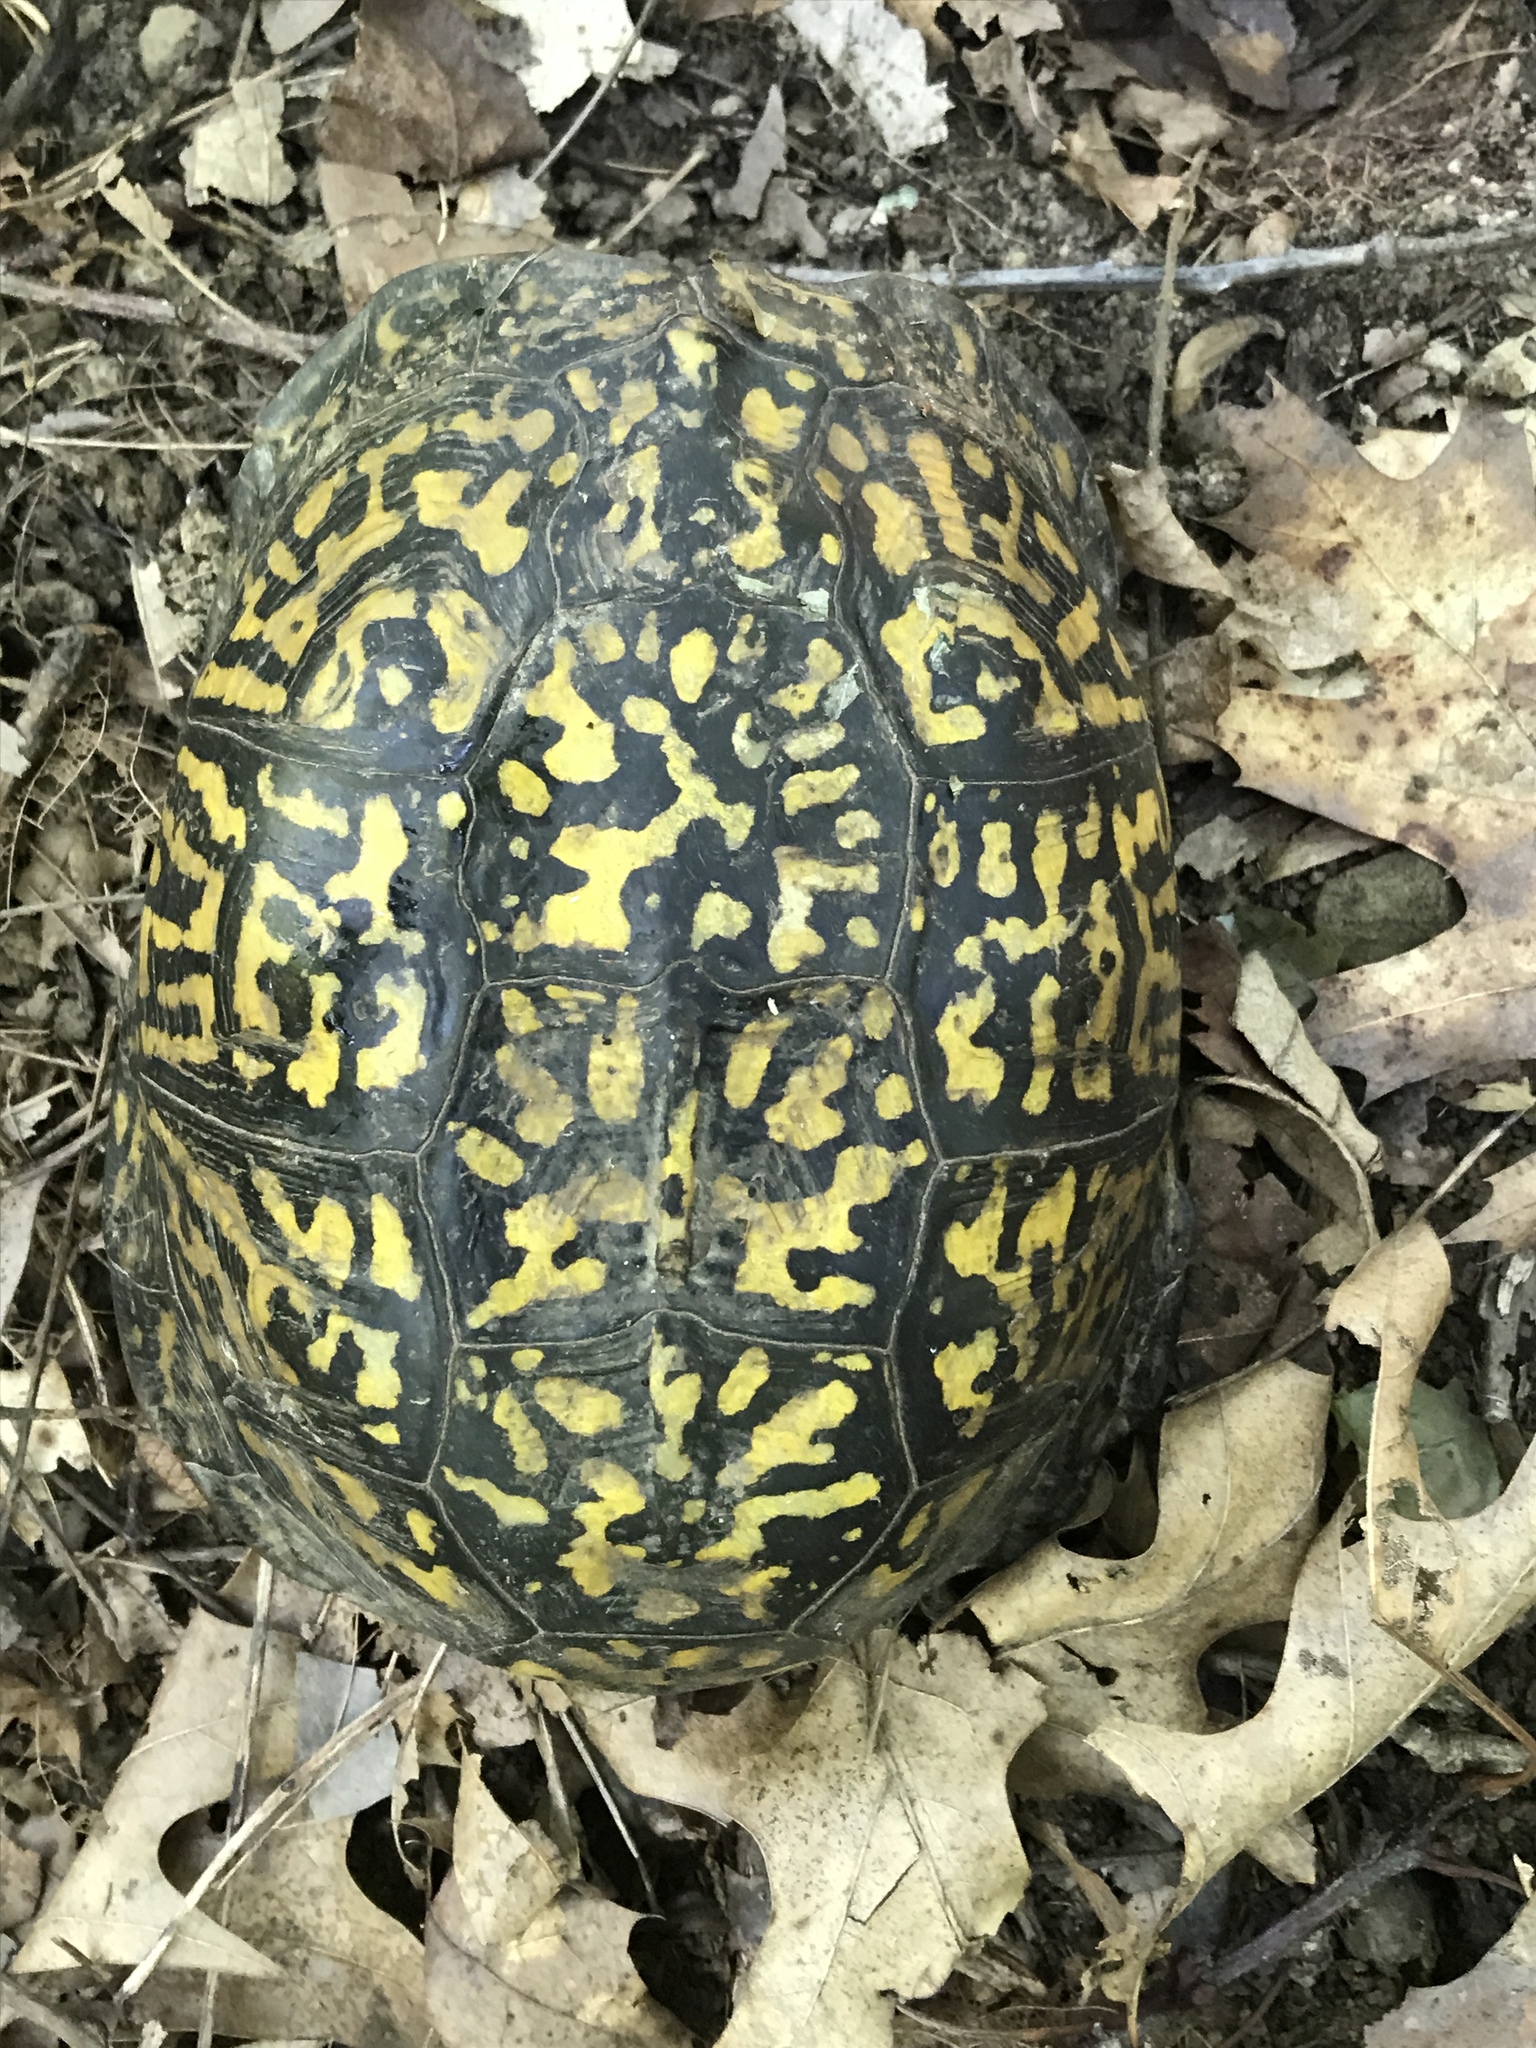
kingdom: Animalia
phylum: Chordata
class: Testudines
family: Emydidae
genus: Terrapene
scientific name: Terrapene carolina
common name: Common box turtle
